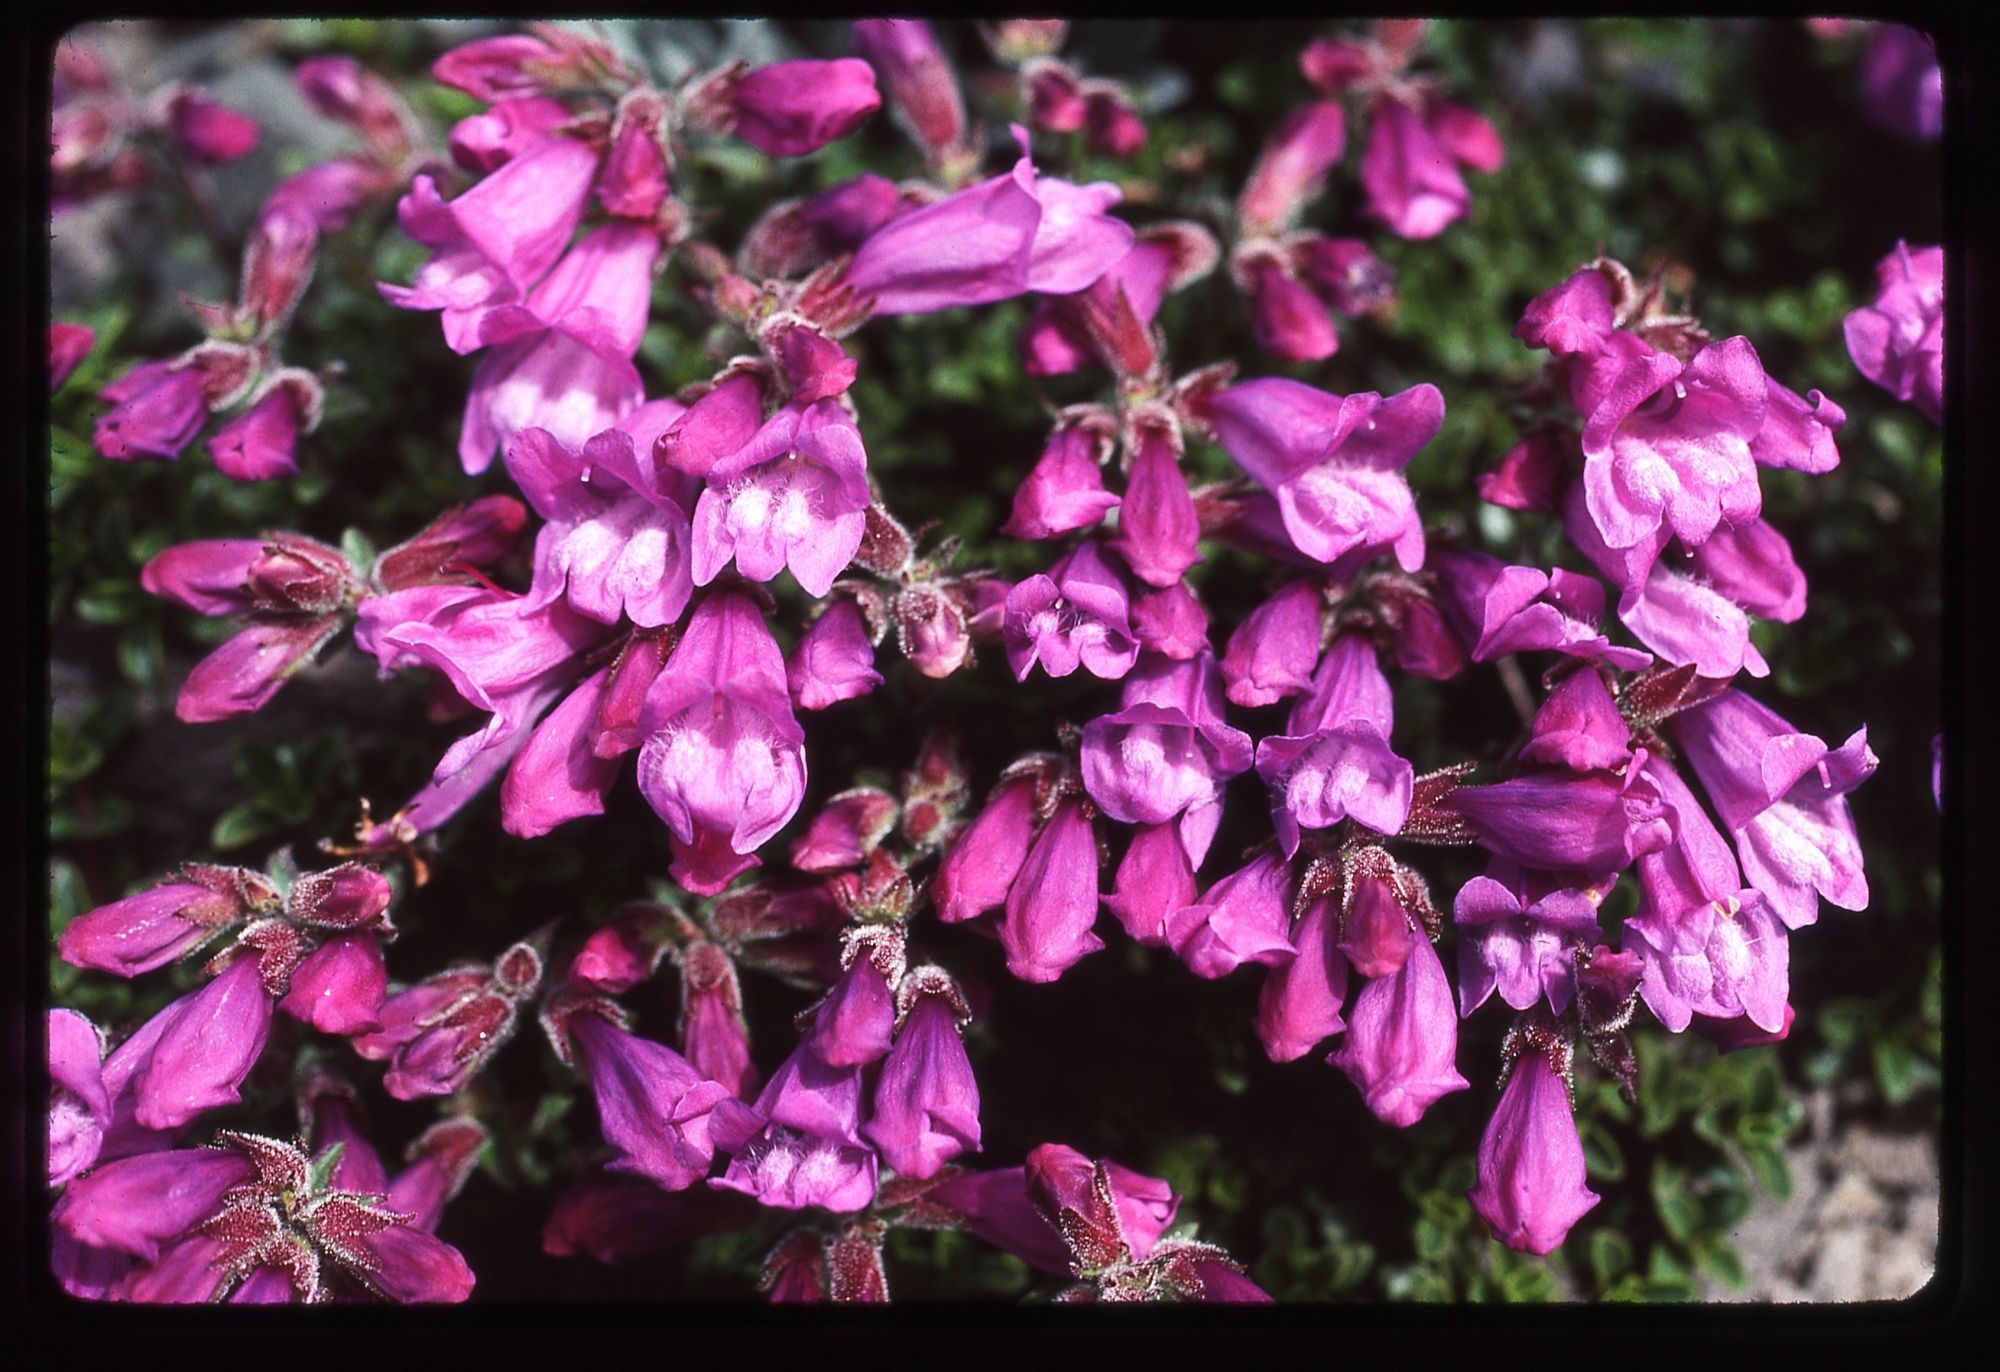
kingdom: Plantae
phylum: Tracheophyta
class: Magnoliopsida
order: Lamiales
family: Plantaginaceae
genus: Penstemon
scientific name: Penstemon davidsonii
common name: Davidson's penstemon
